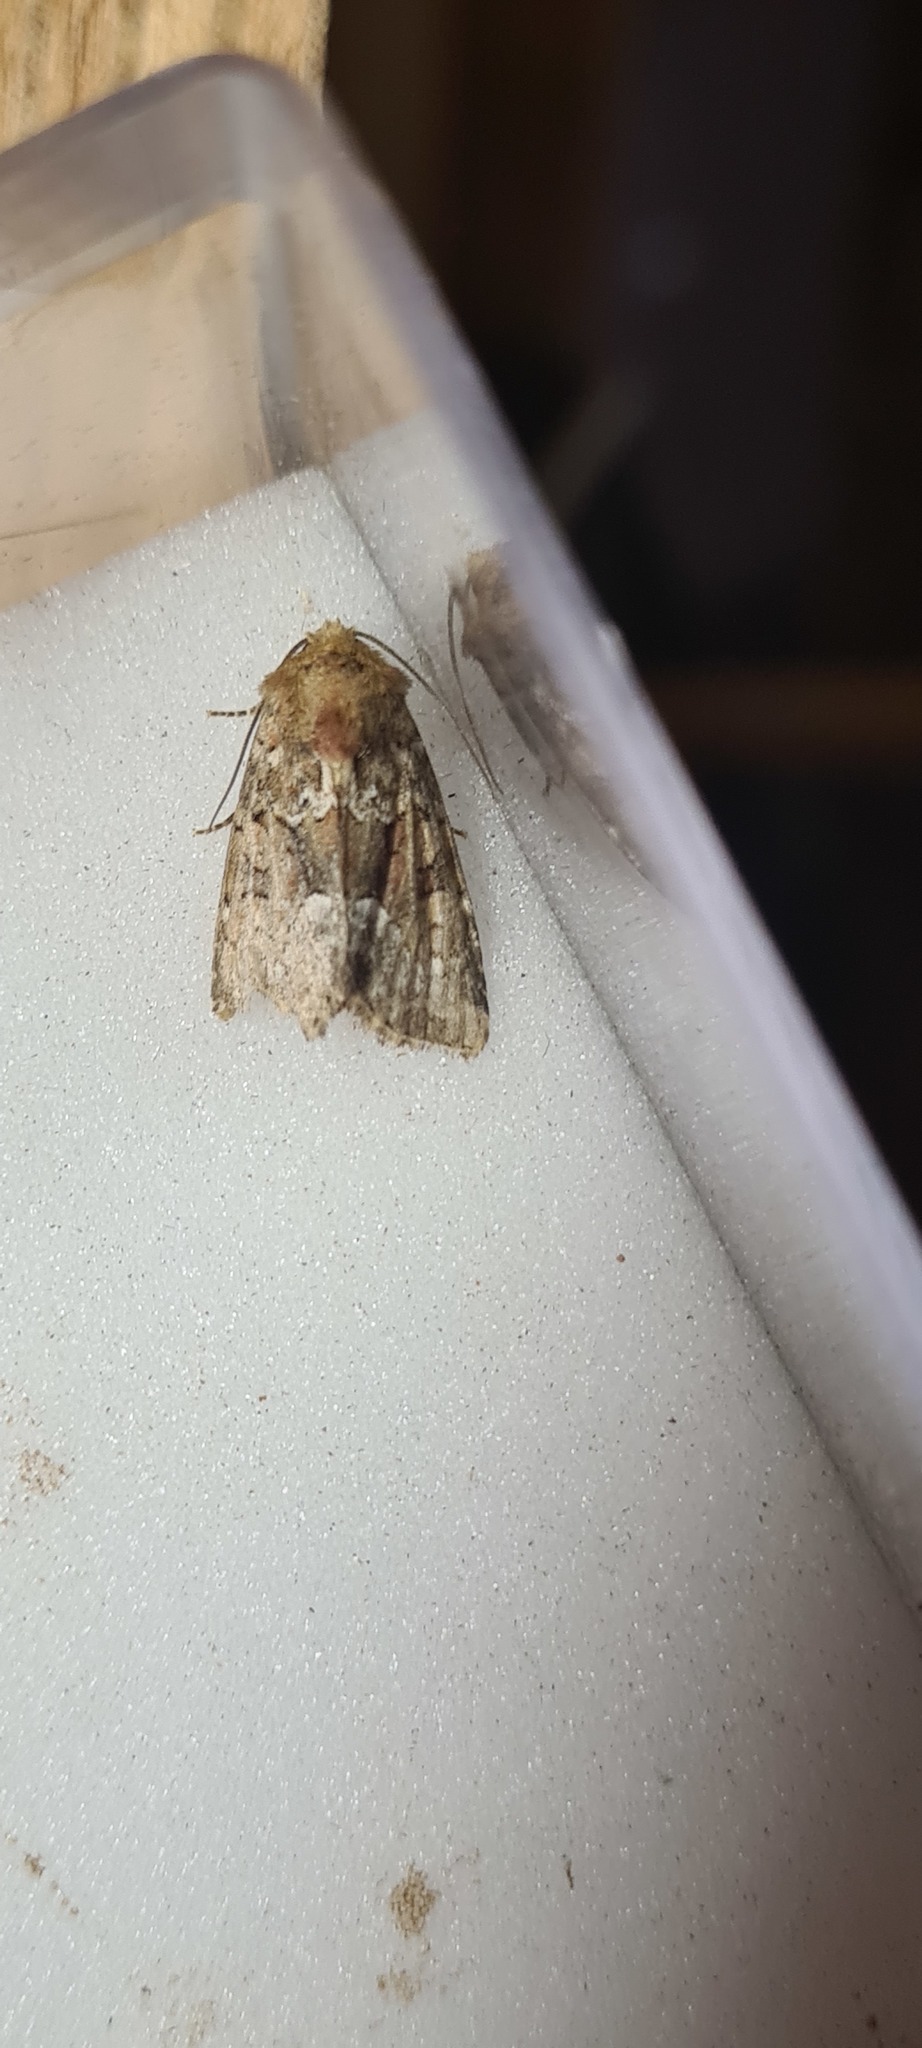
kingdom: Animalia
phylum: Arthropoda
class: Insecta
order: Lepidoptera
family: Noctuidae
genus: Oligia
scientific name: Oligia fasciuncula
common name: Middle-barred minor
